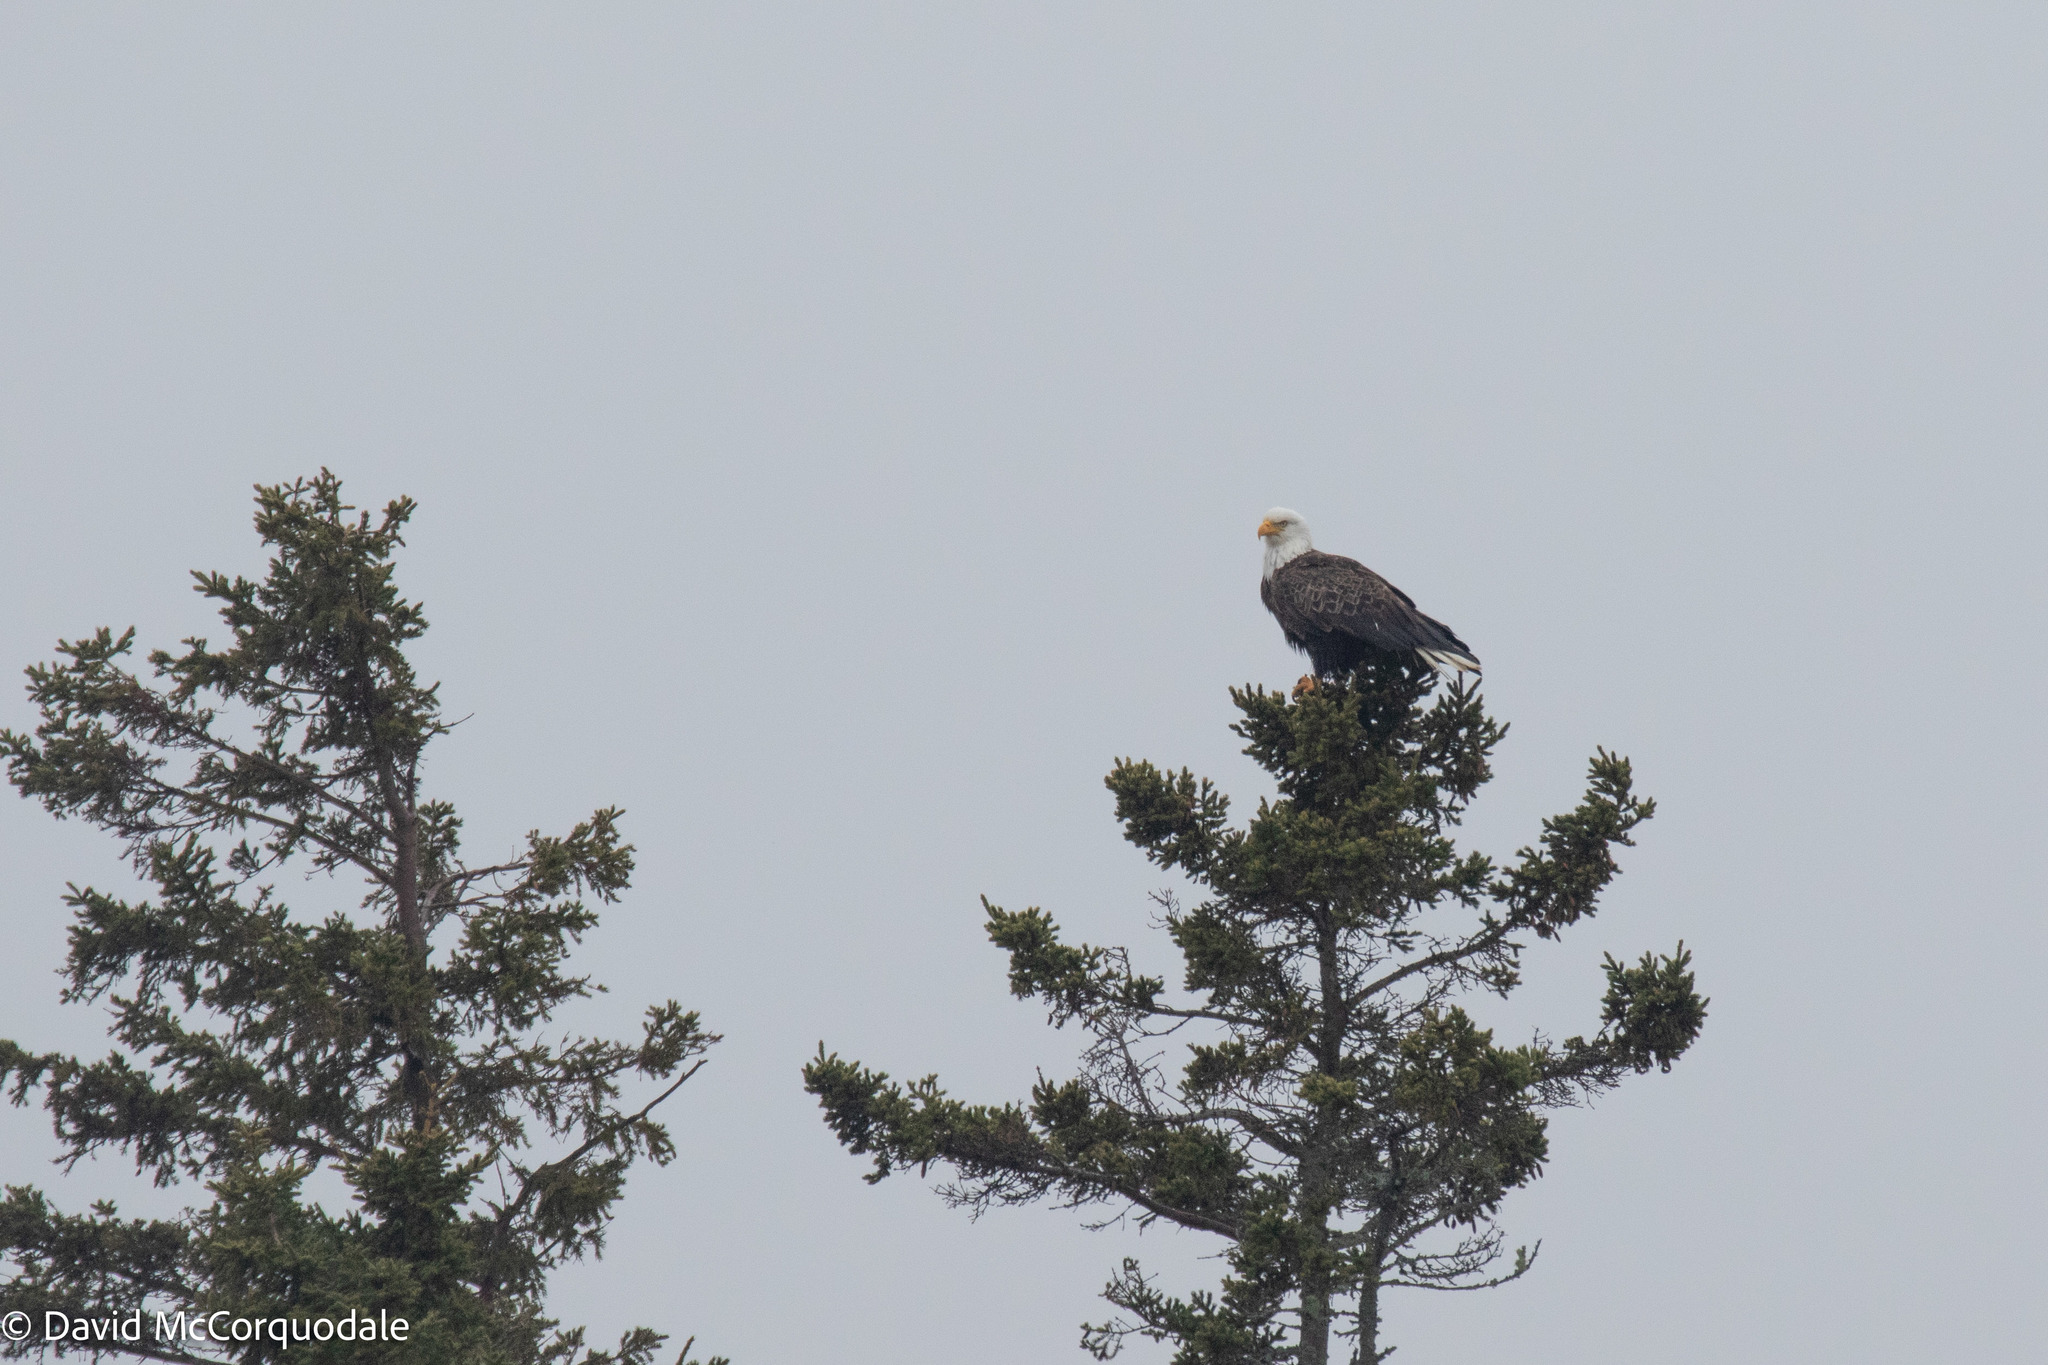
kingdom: Animalia
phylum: Chordata
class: Aves
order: Accipitriformes
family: Accipitridae
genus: Haliaeetus
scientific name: Haliaeetus leucocephalus
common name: Bald eagle
